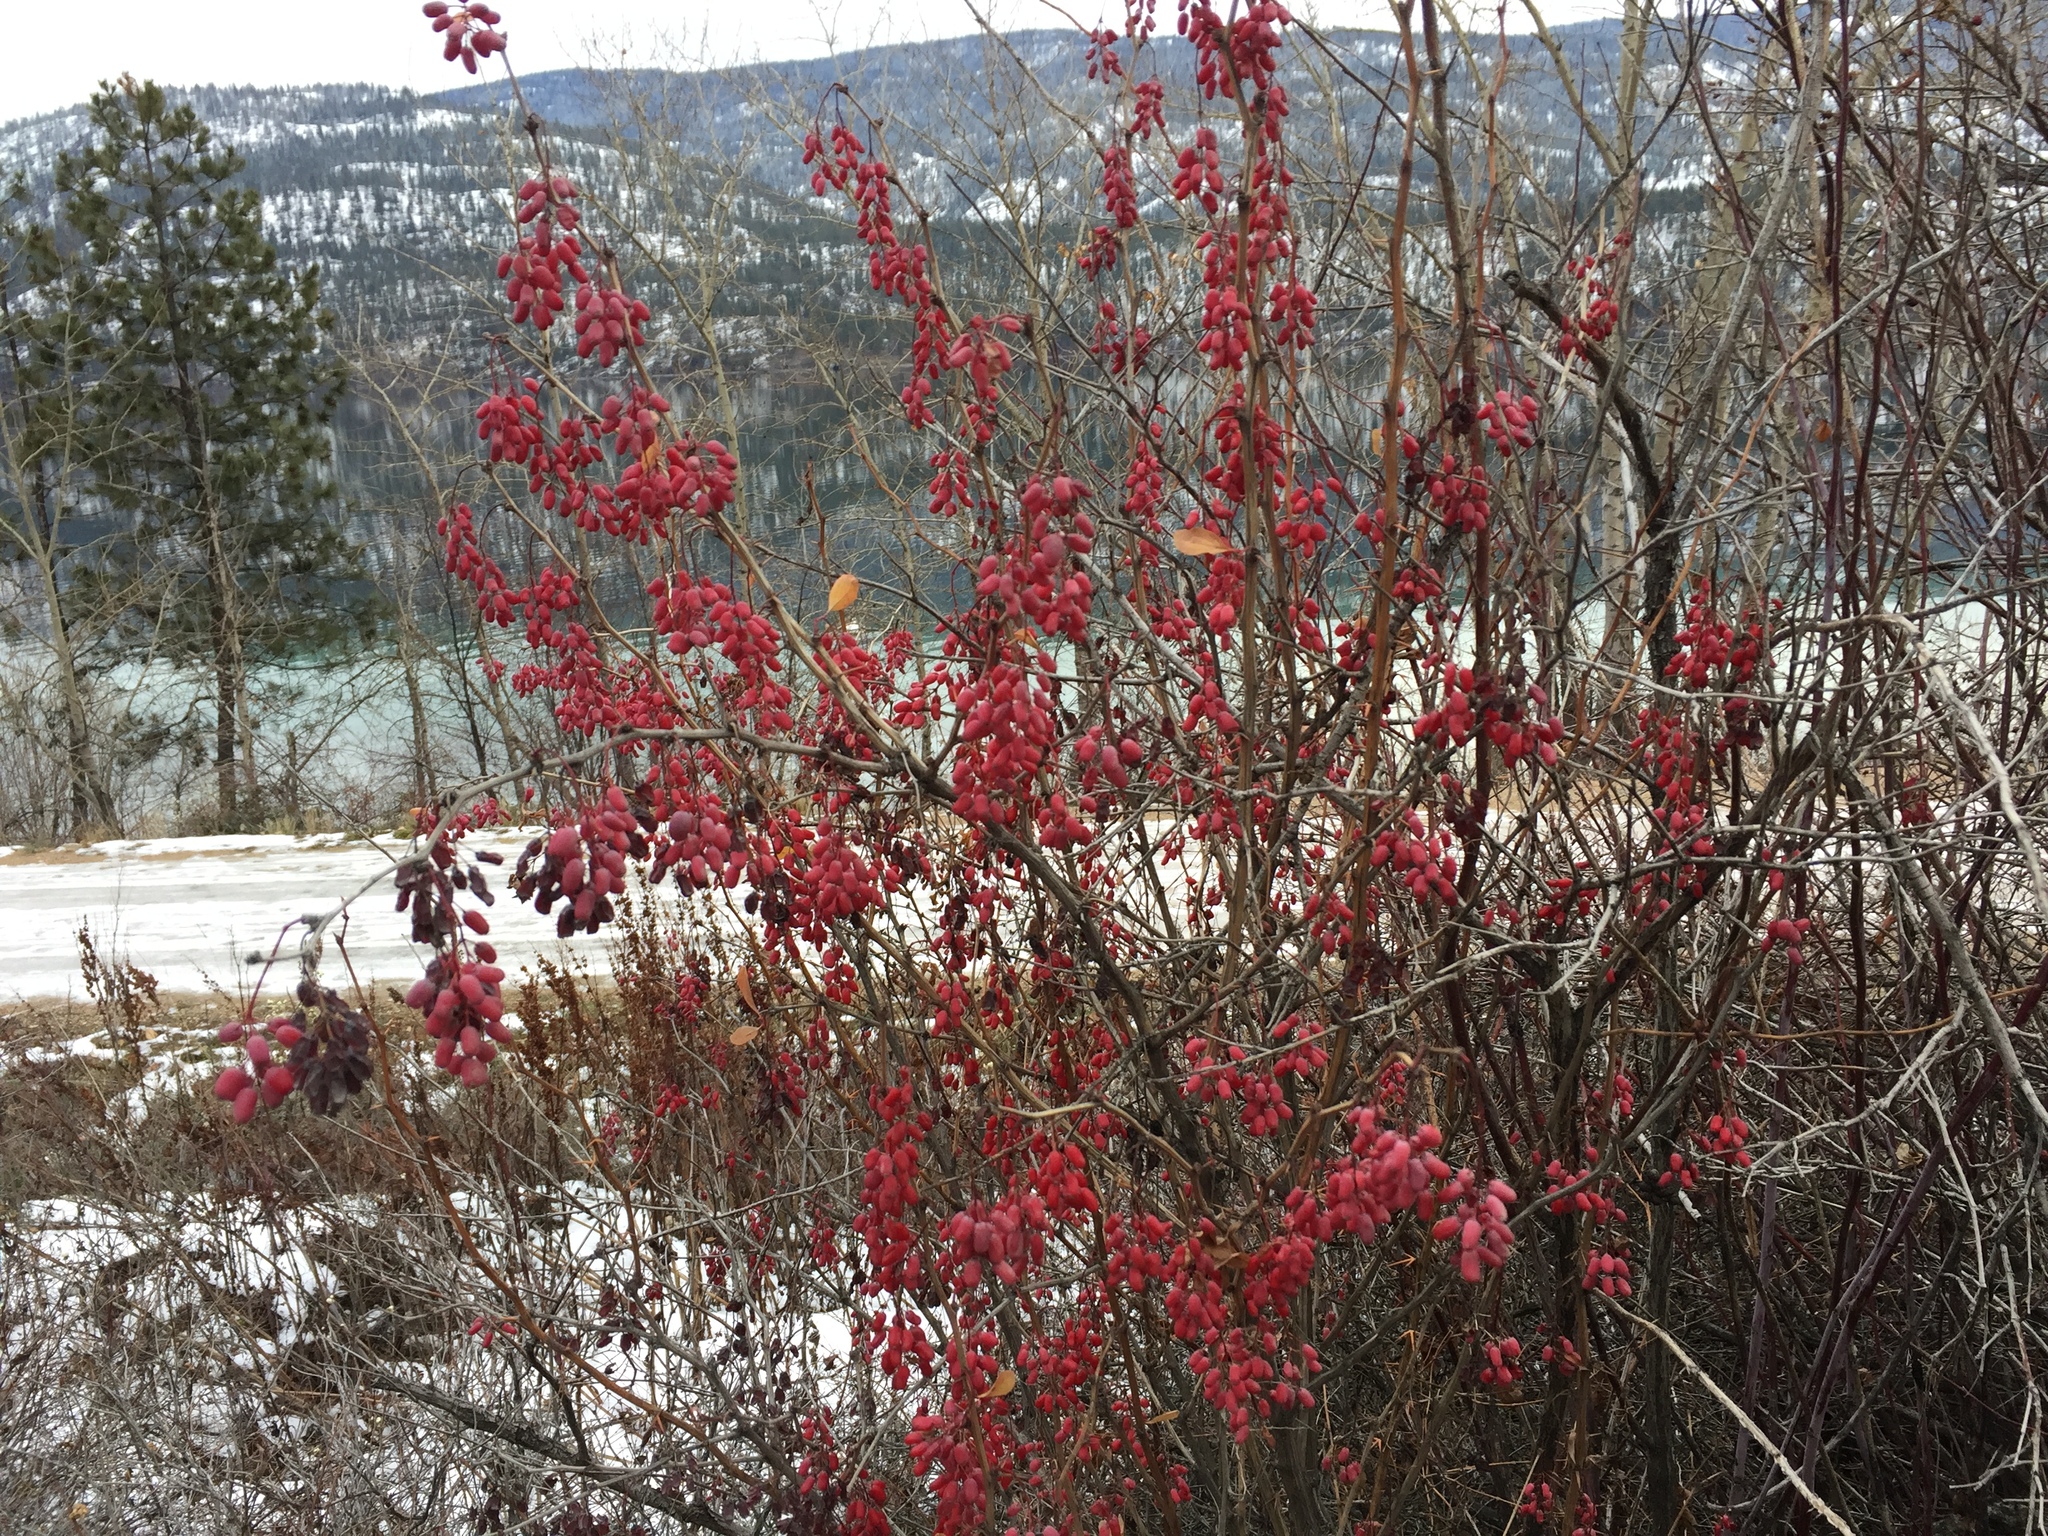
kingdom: Plantae
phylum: Tracheophyta
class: Magnoliopsida
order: Ranunculales
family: Berberidaceae
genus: Berberis
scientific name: Berberis vulgaris
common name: Barberry
